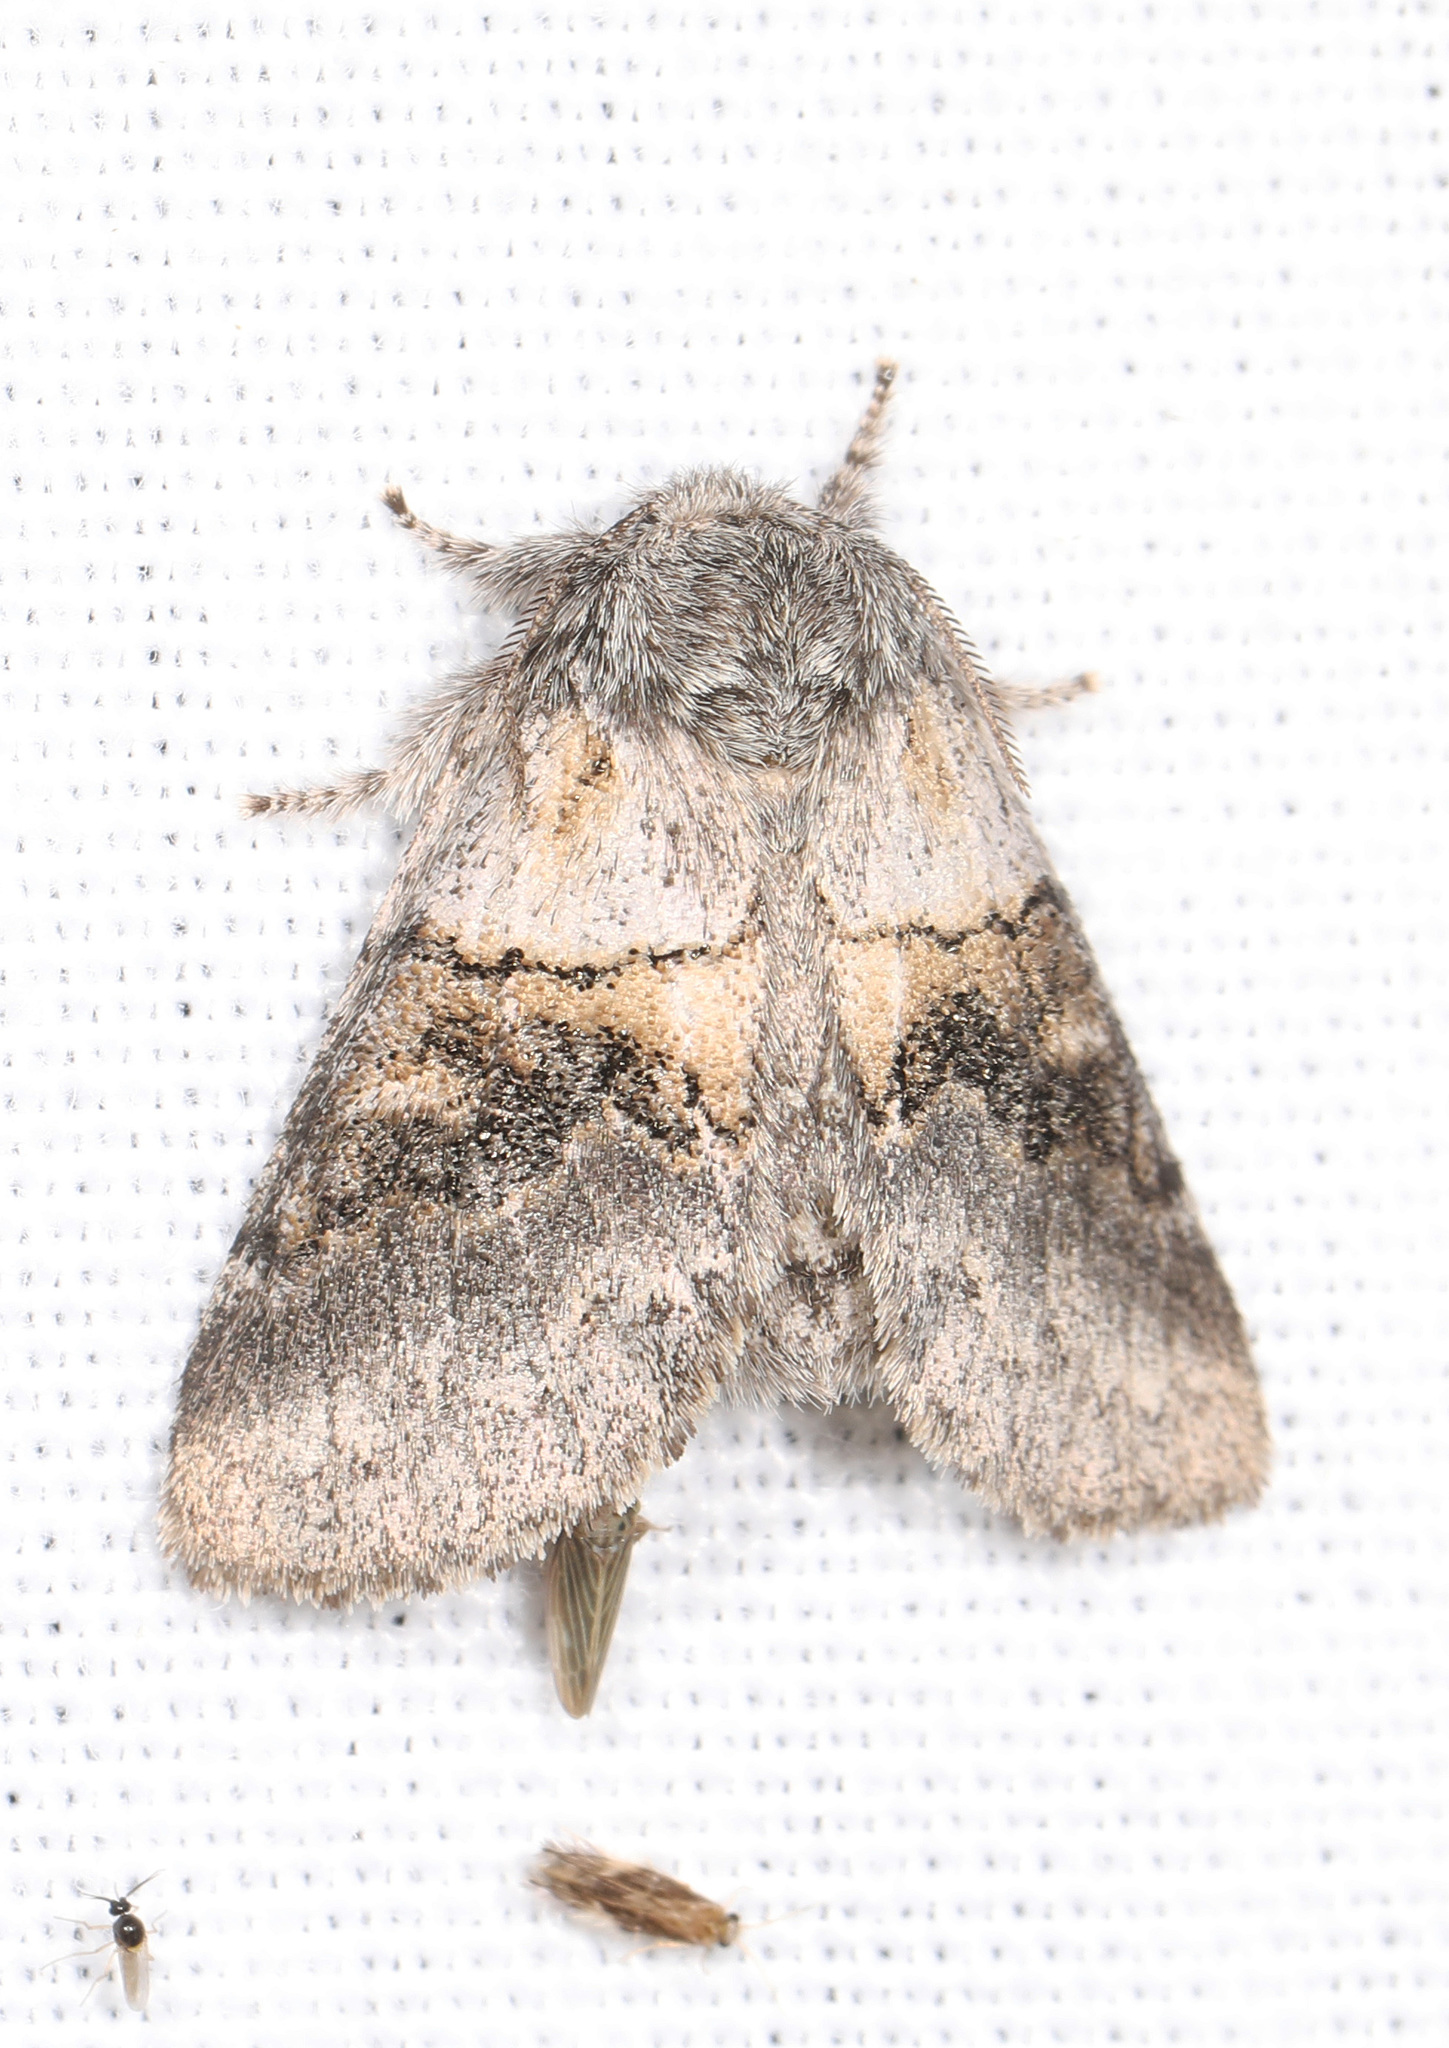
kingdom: Animalia
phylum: Arthropoda
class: Insecta
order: Lepidoptera
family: Notodontidae
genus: Gluphisia
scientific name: Gluphisia septentrionis
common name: Common gluphisia
